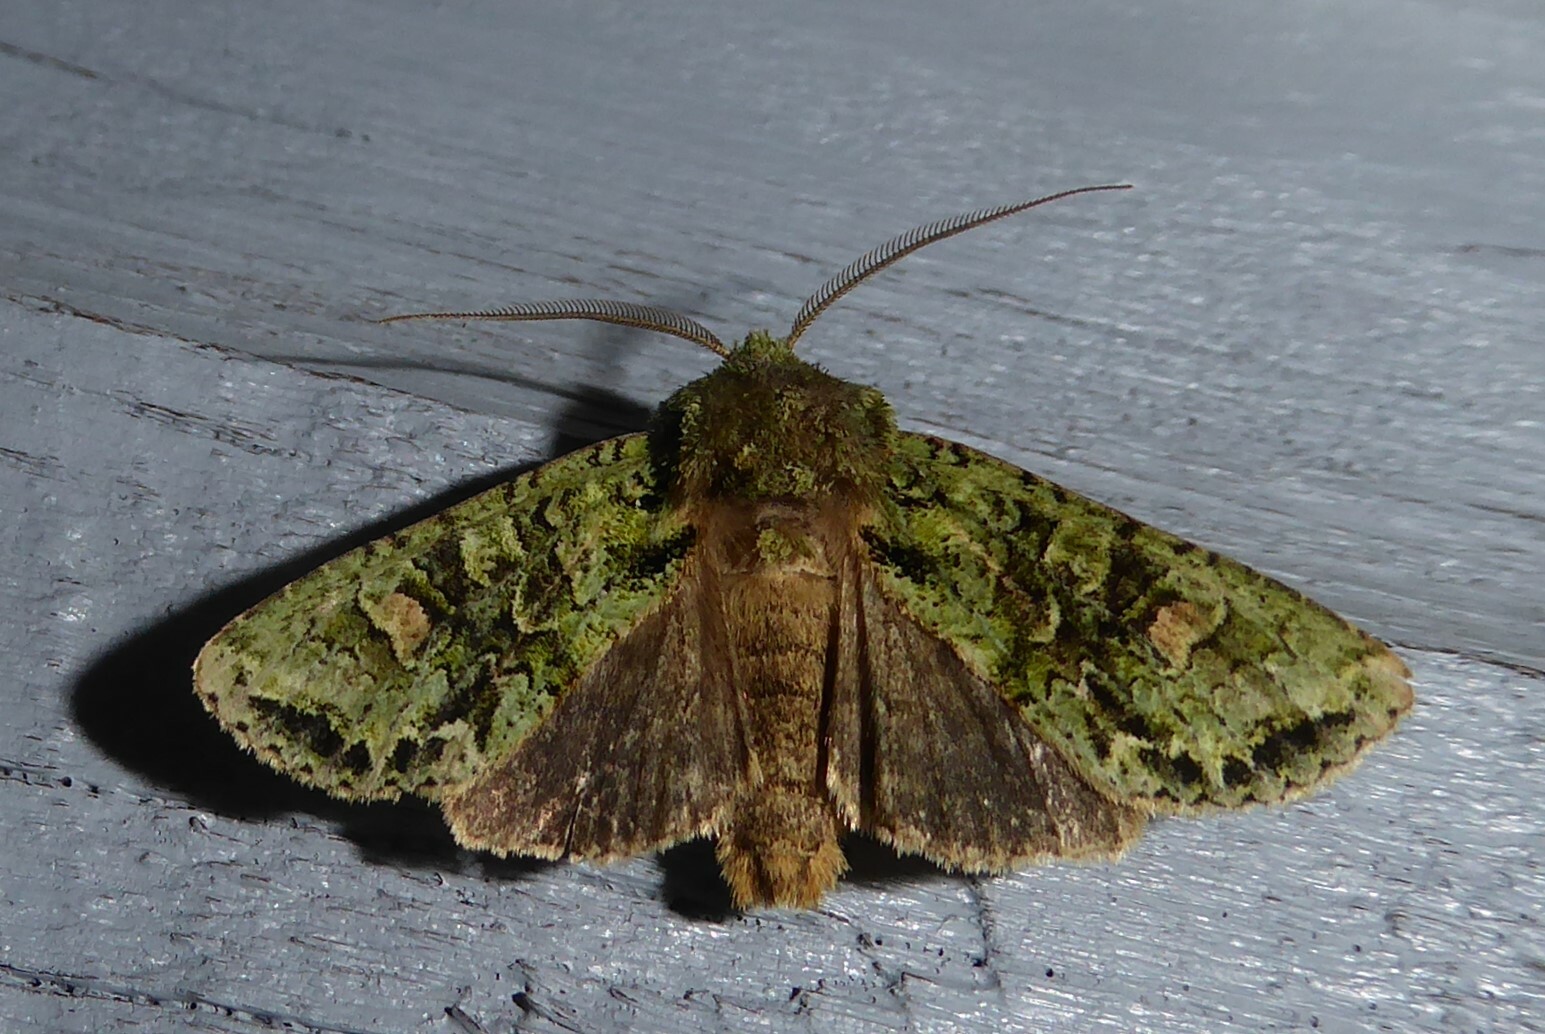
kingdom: Animalia
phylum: Arthropoda
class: Insecta
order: Lepidoptera
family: Noctuidae
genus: Ichneutica
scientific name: Ichneutica
